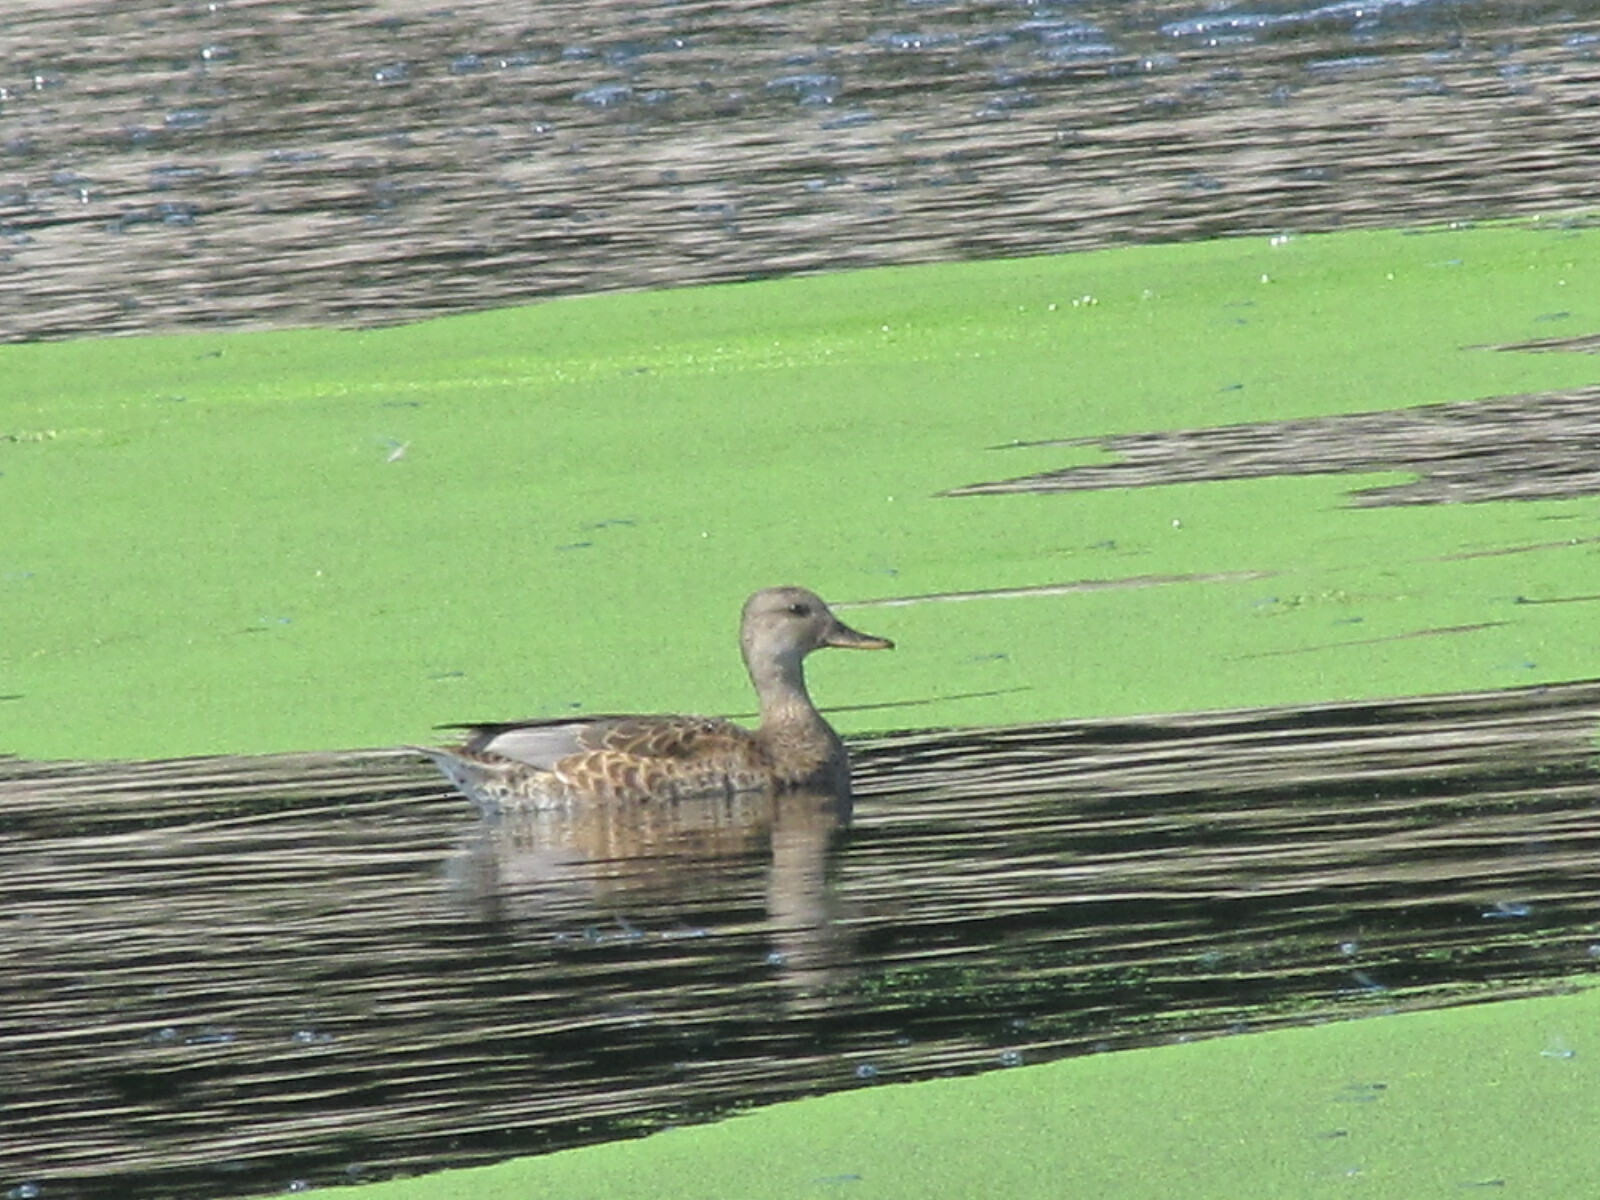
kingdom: Animalia
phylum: Chordata
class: Aves
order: Anseriformes
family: Anatidae
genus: Mareca
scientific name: Mareca strepera
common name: Gadwall
